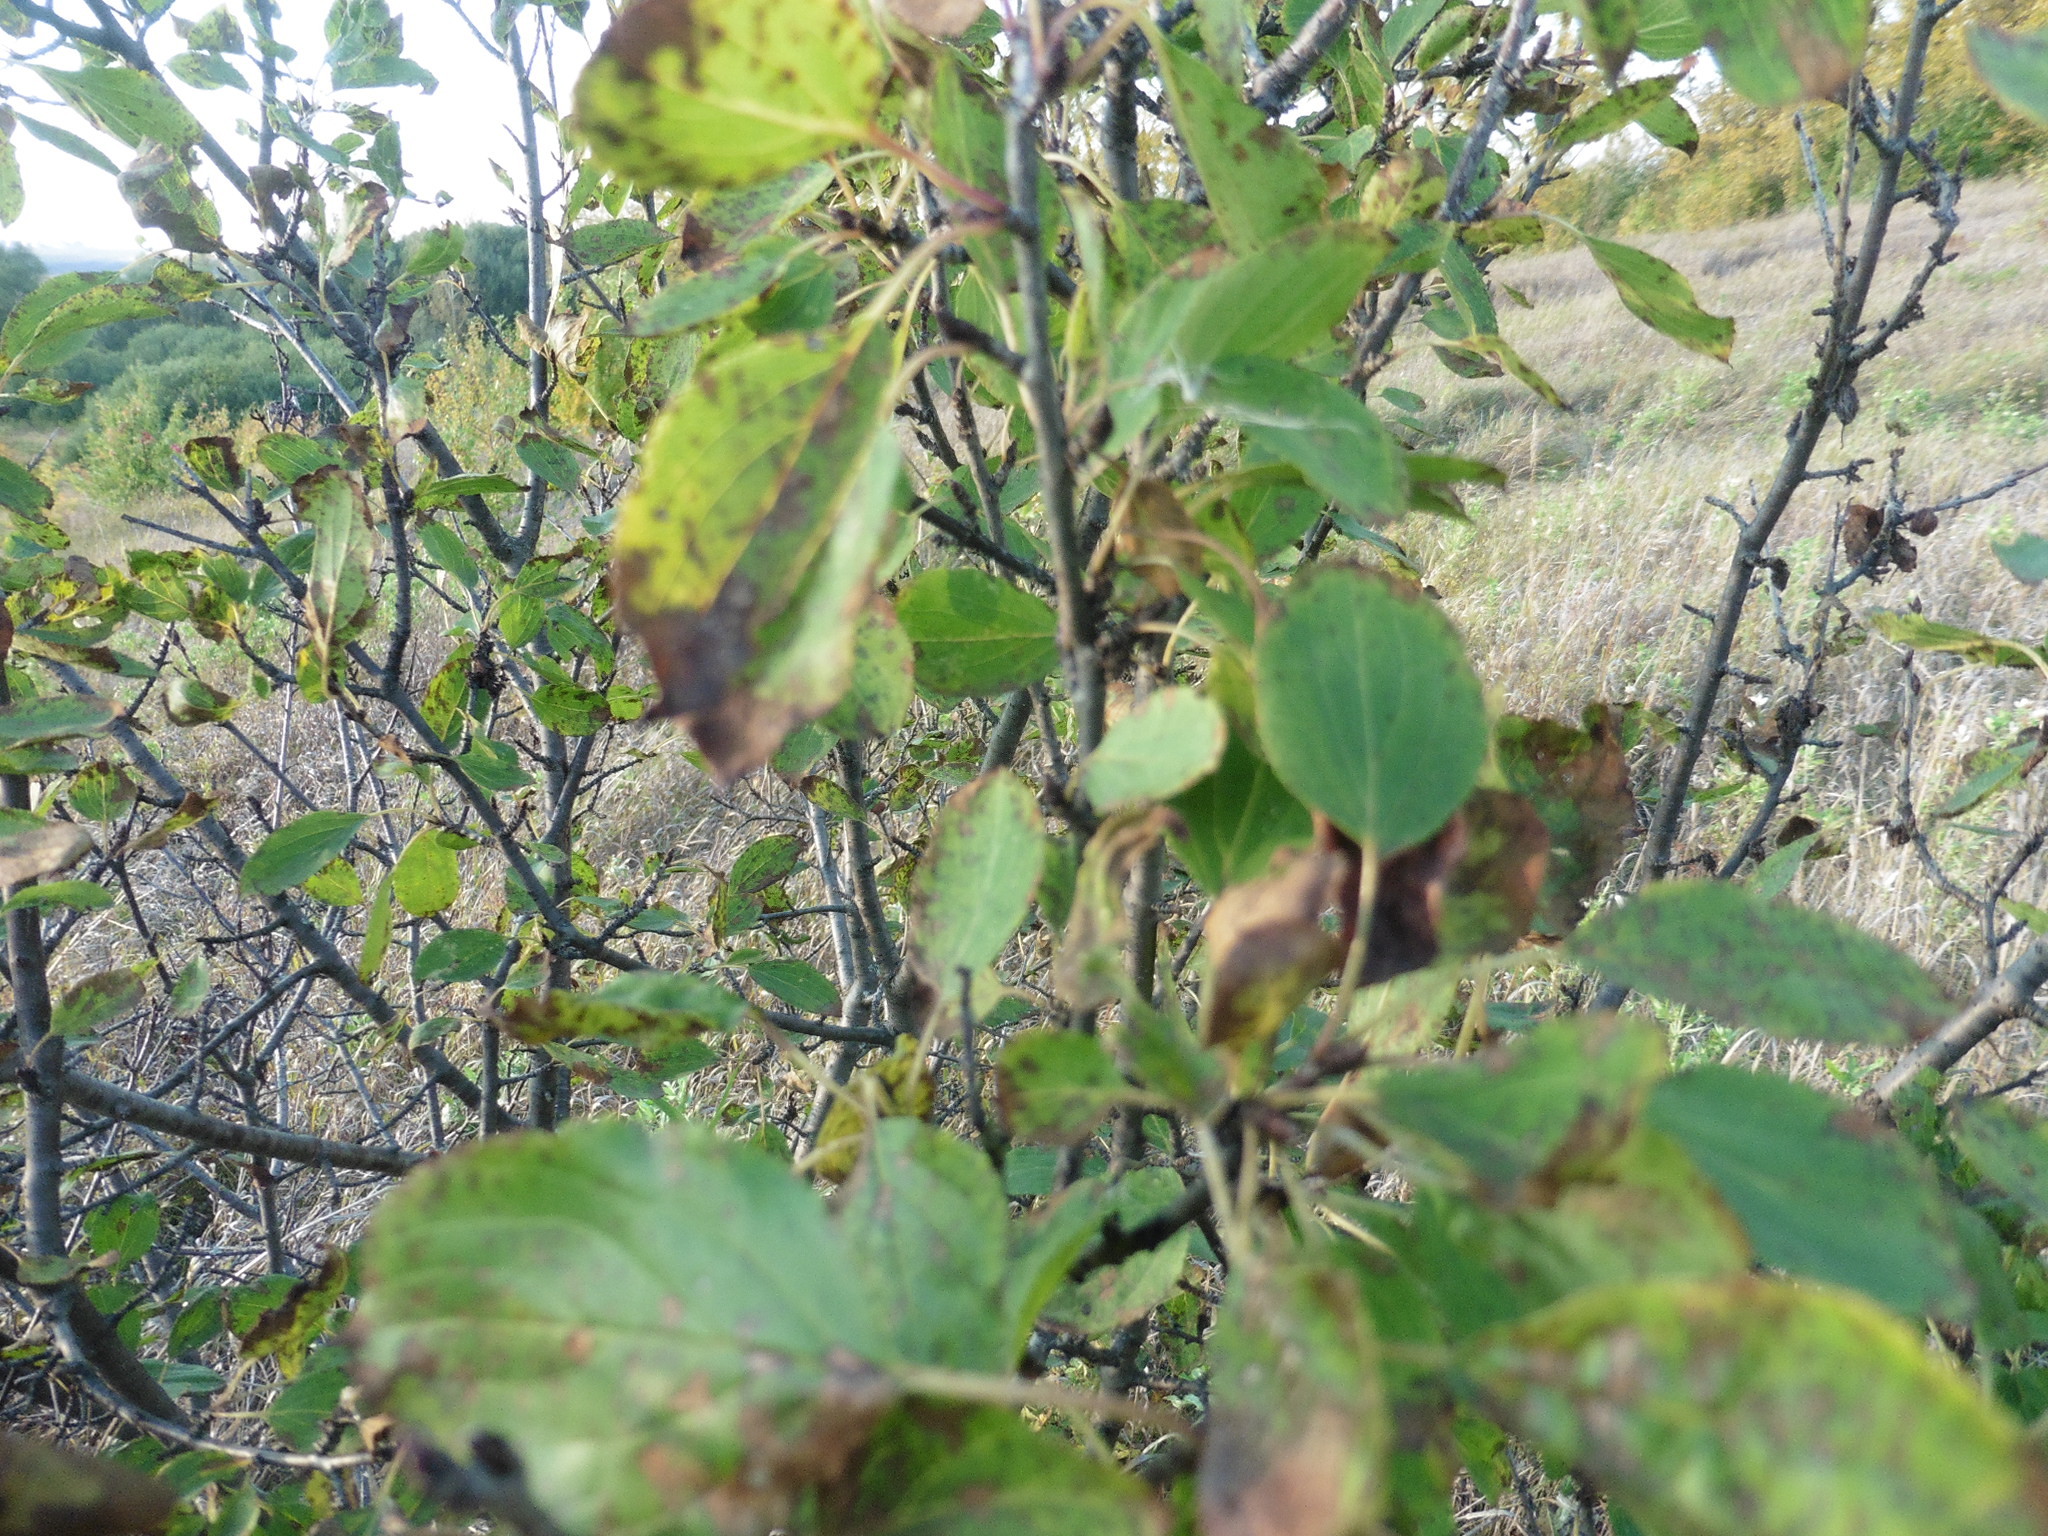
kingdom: Plantae
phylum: Tracheophyta
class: Magnoliopsida
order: Rosales
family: Rhamnaceae
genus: Rhamnus
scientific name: Rhamnus cathartica
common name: Common buckthorn
